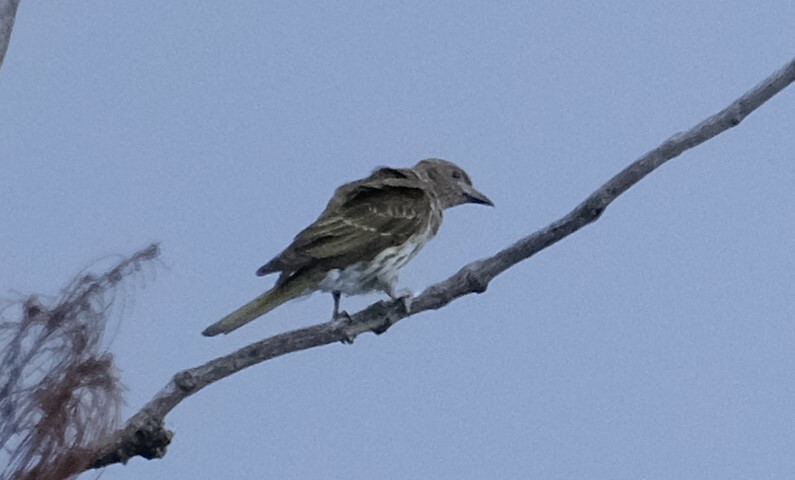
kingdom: Animalia
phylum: Chordata
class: Aves
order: Passeriformes
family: Oriolidae
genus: Sphecotheres
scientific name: Sphecotheres vieilloti
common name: Australasian figbird
